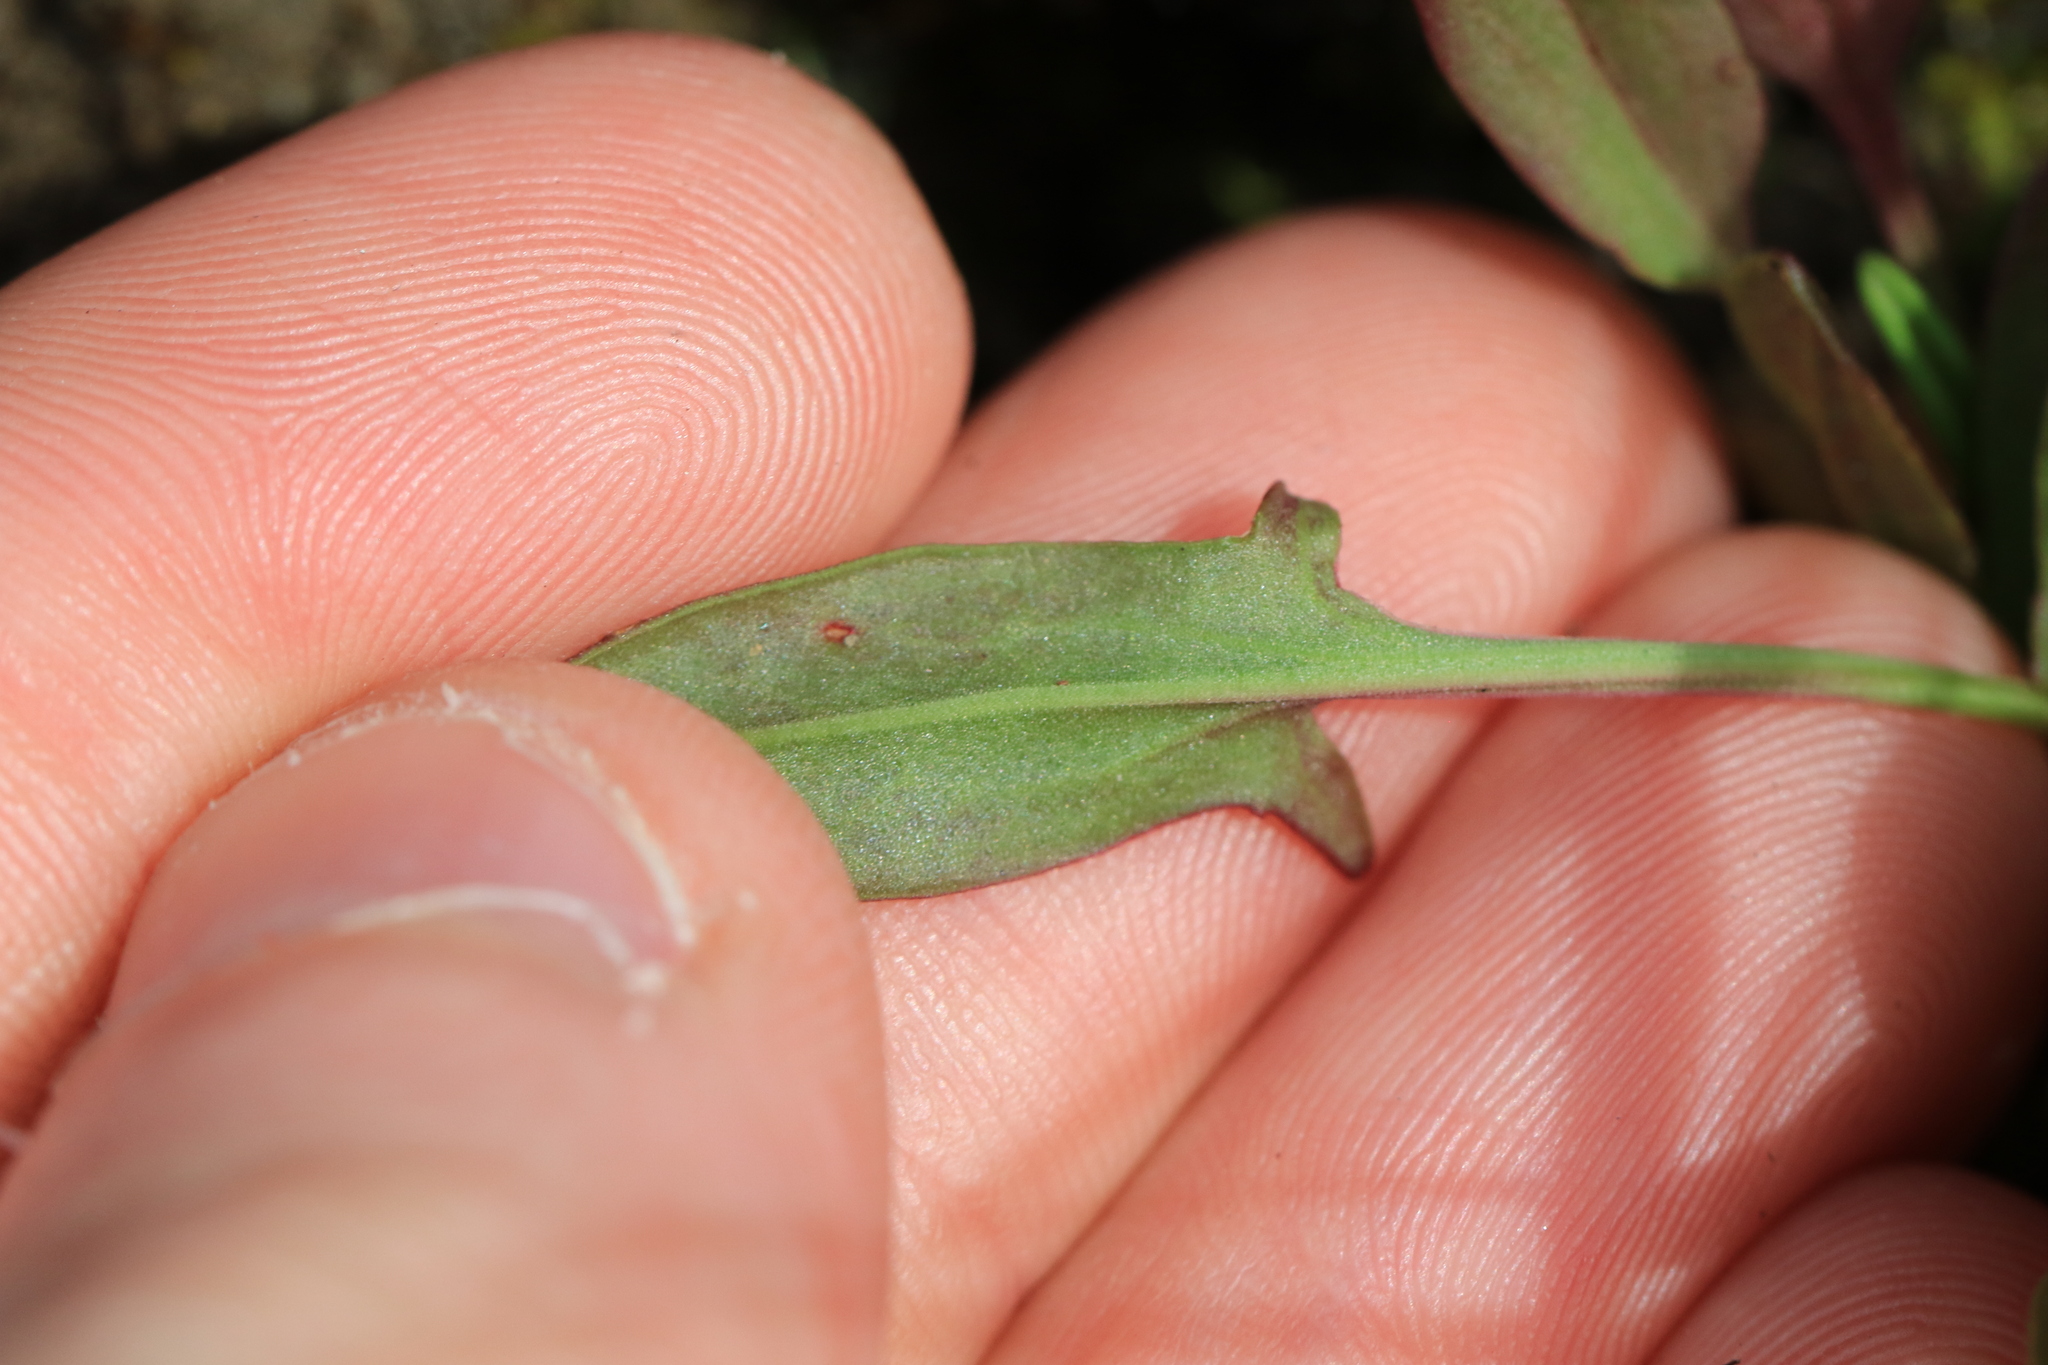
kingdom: Plantae
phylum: Tracheophyta
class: Magnoliopsida
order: Caryophyllales
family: Polygonaceae
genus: Rumex
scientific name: Rumex acetosella
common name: Common sheep sorrel
